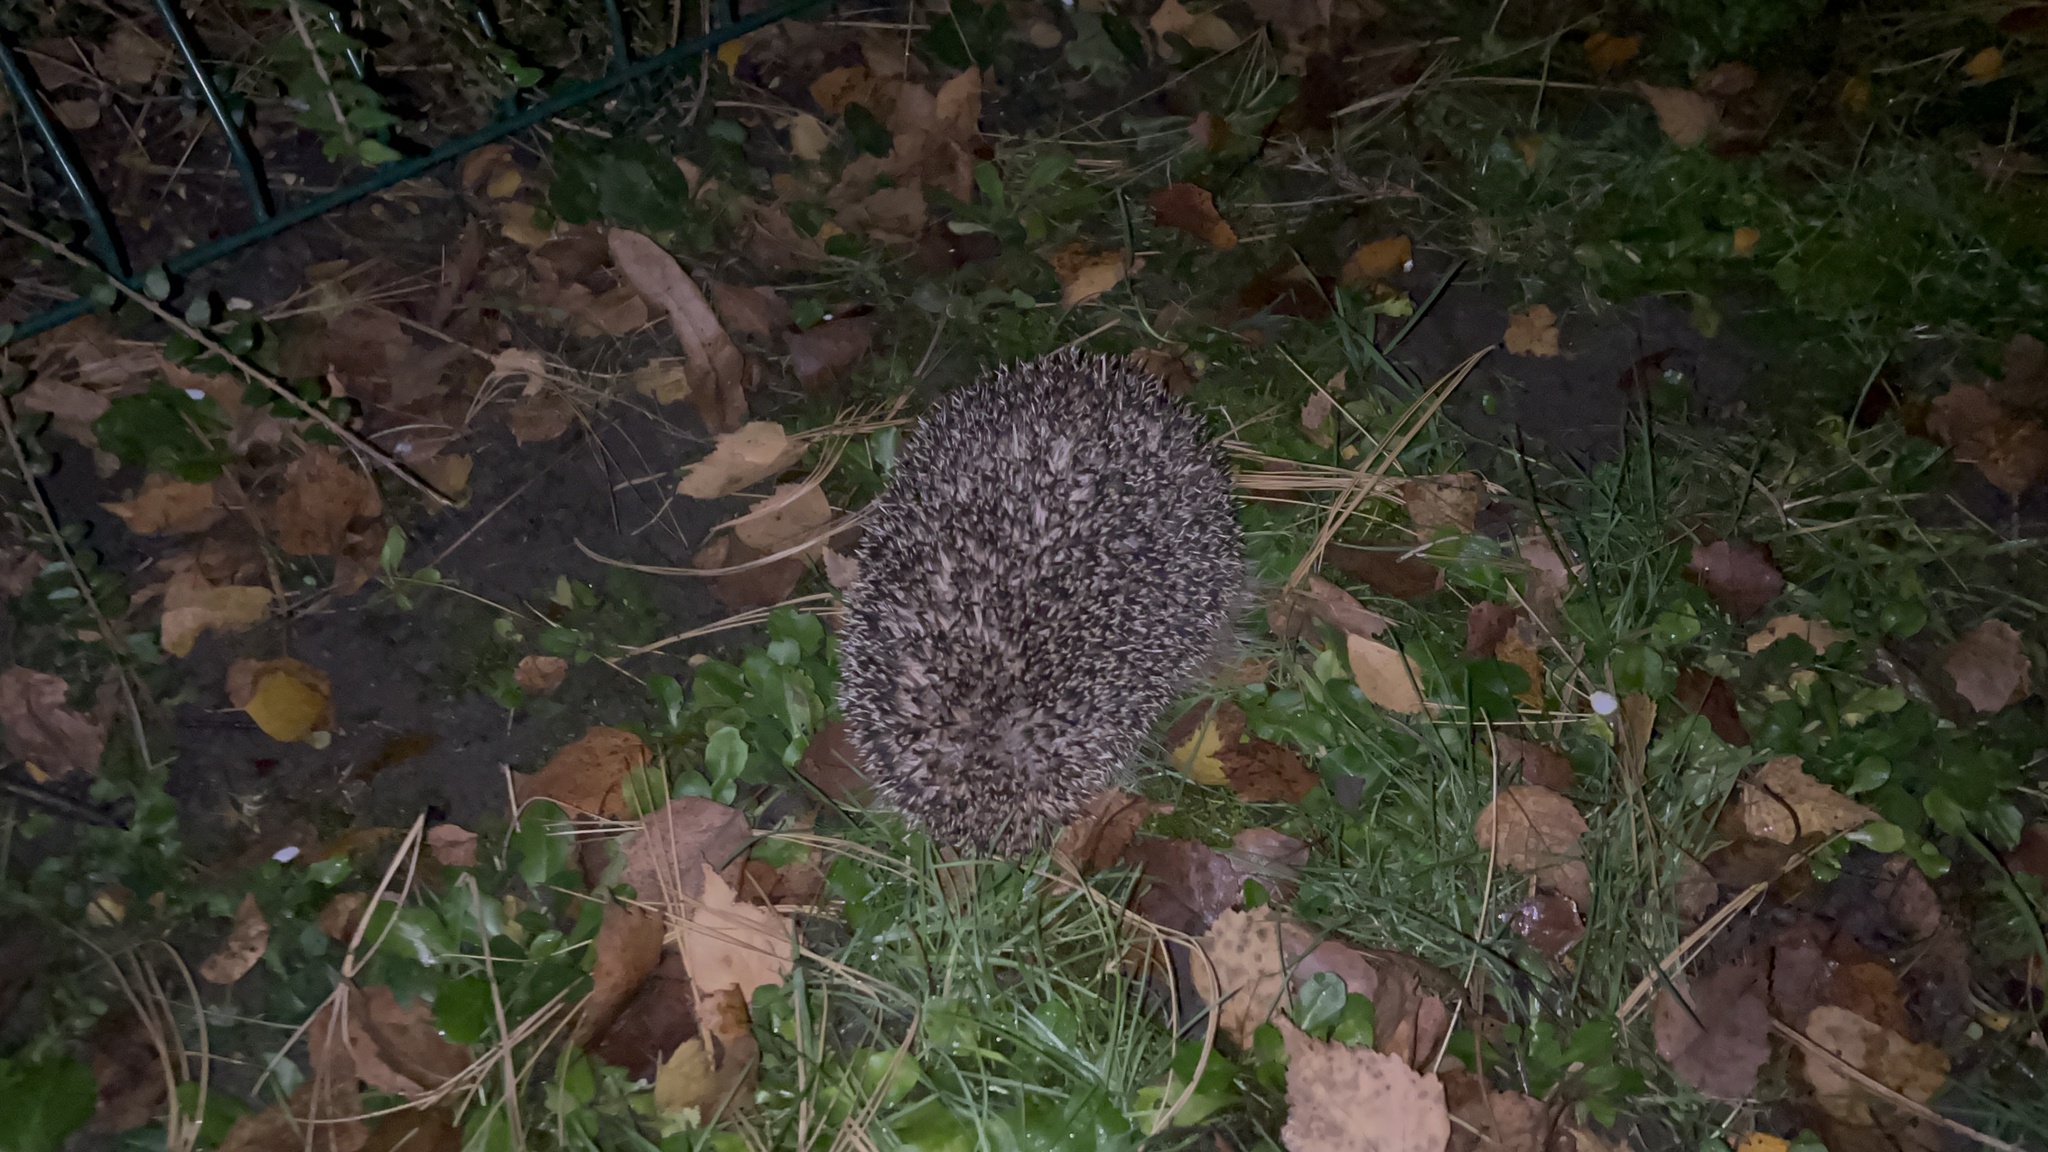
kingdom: Animalia
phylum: Chordata
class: Mammalia
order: Erinaceomorpha
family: Erinaceidae
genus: Erinaceus
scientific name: Erinaceus europaeus
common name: West european hedgehog
